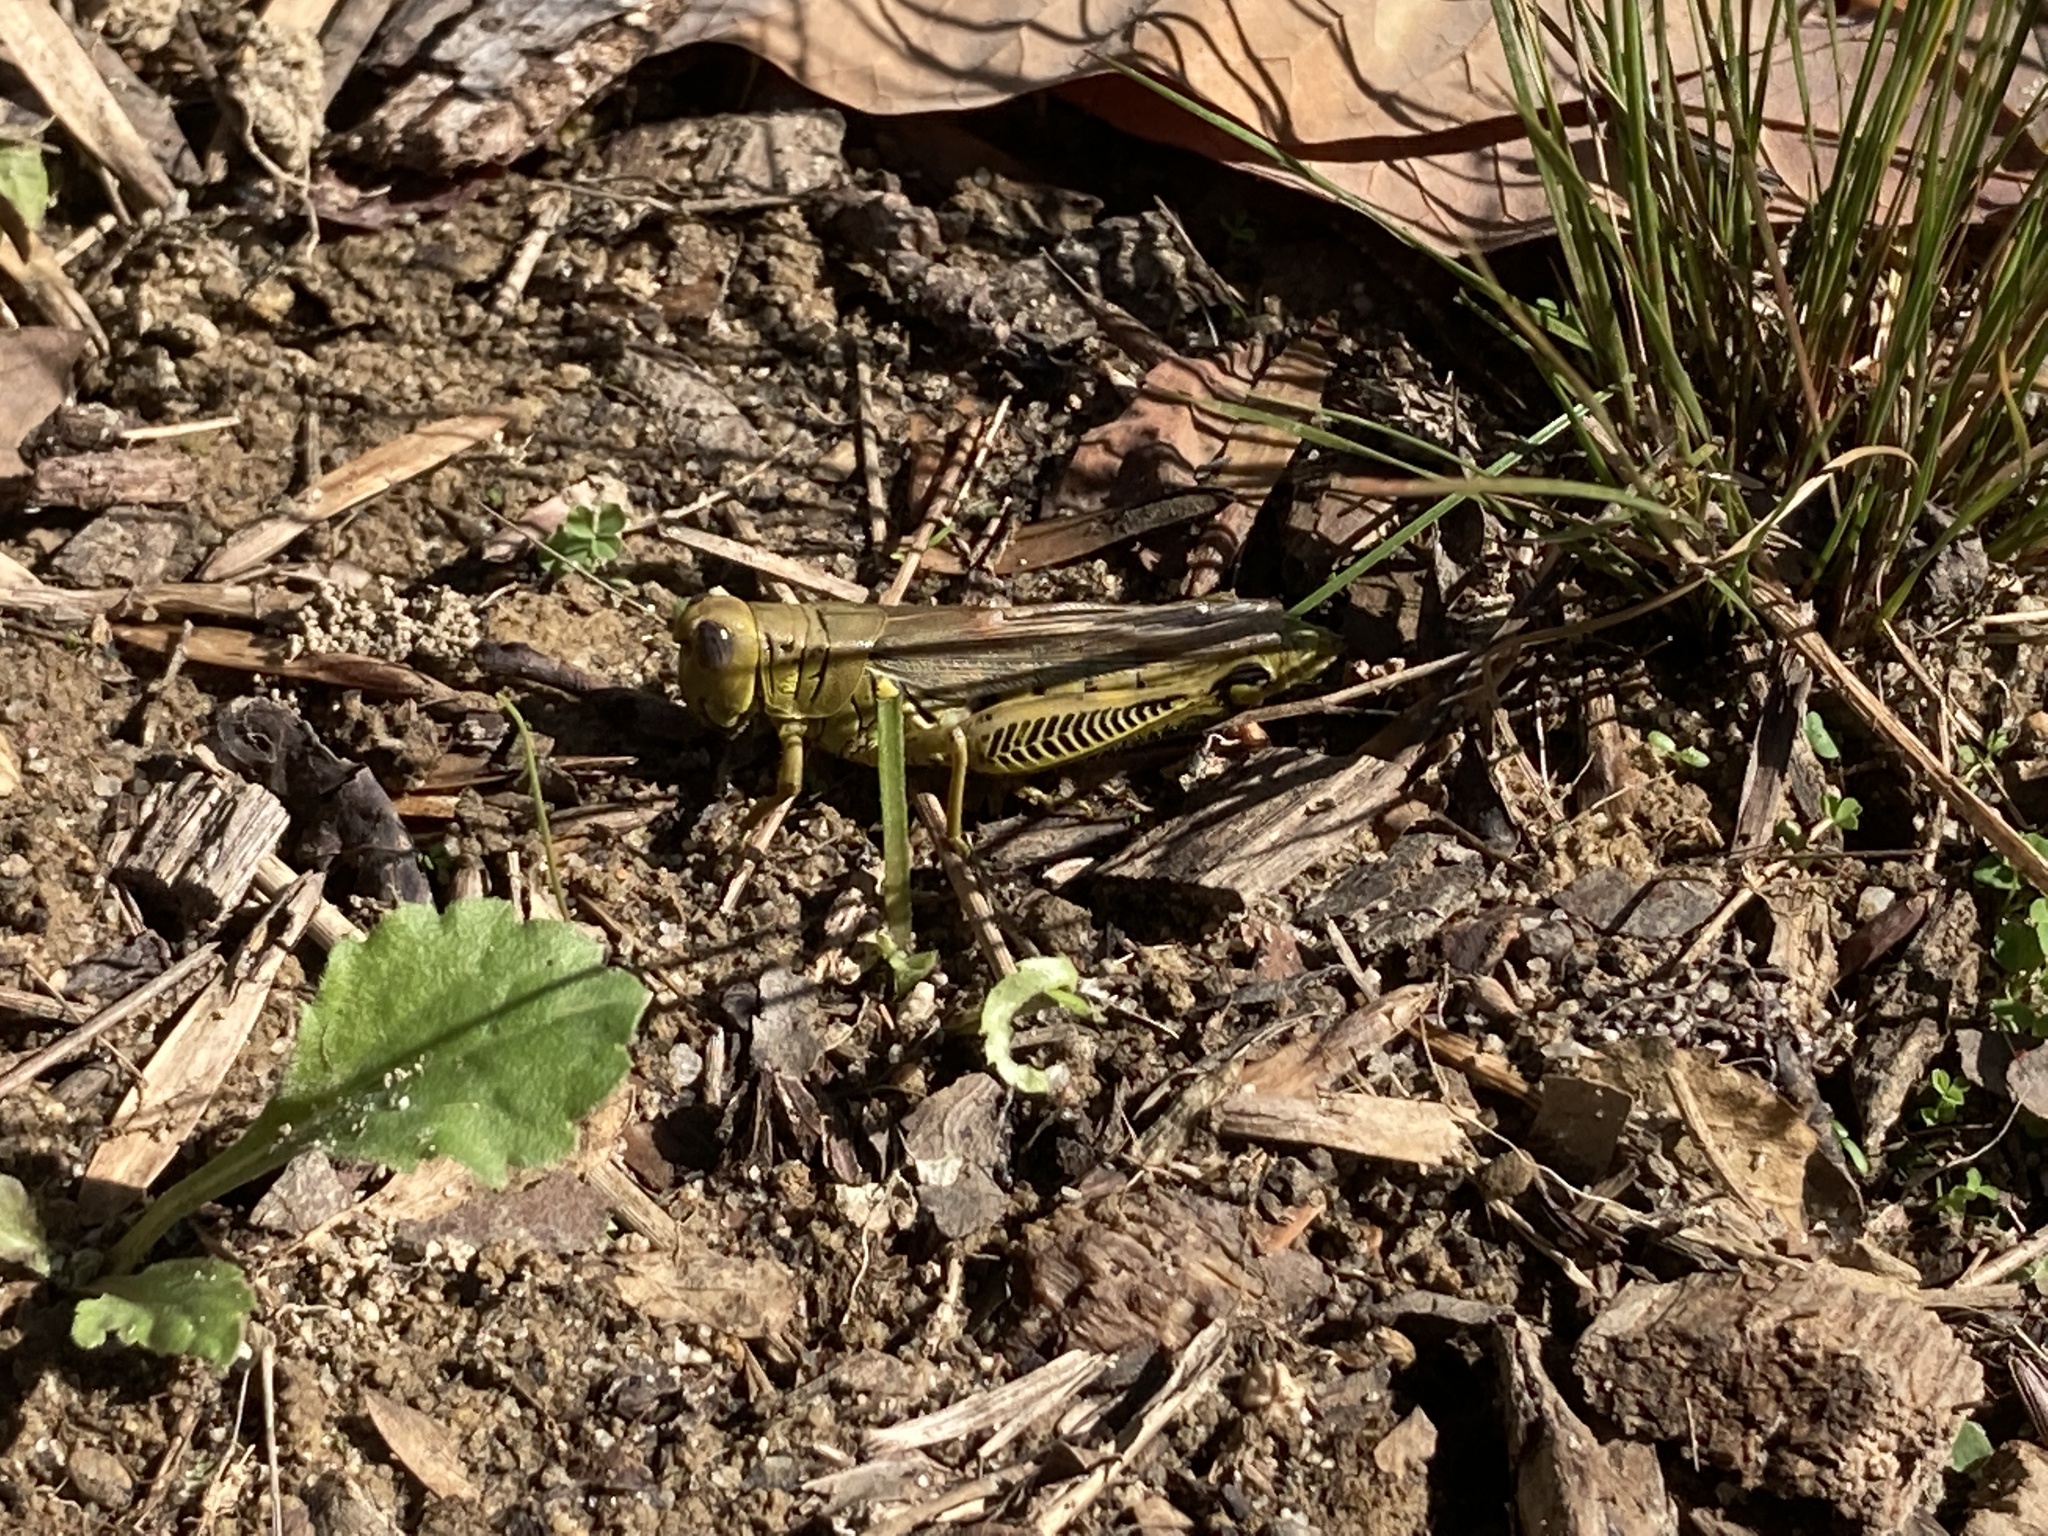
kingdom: Animalia
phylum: Arthropoda
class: Insecta
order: Orthoptera
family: Acrididae
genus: Melanoplus
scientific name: Melanoplus differentialis
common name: Differential grasshopper
